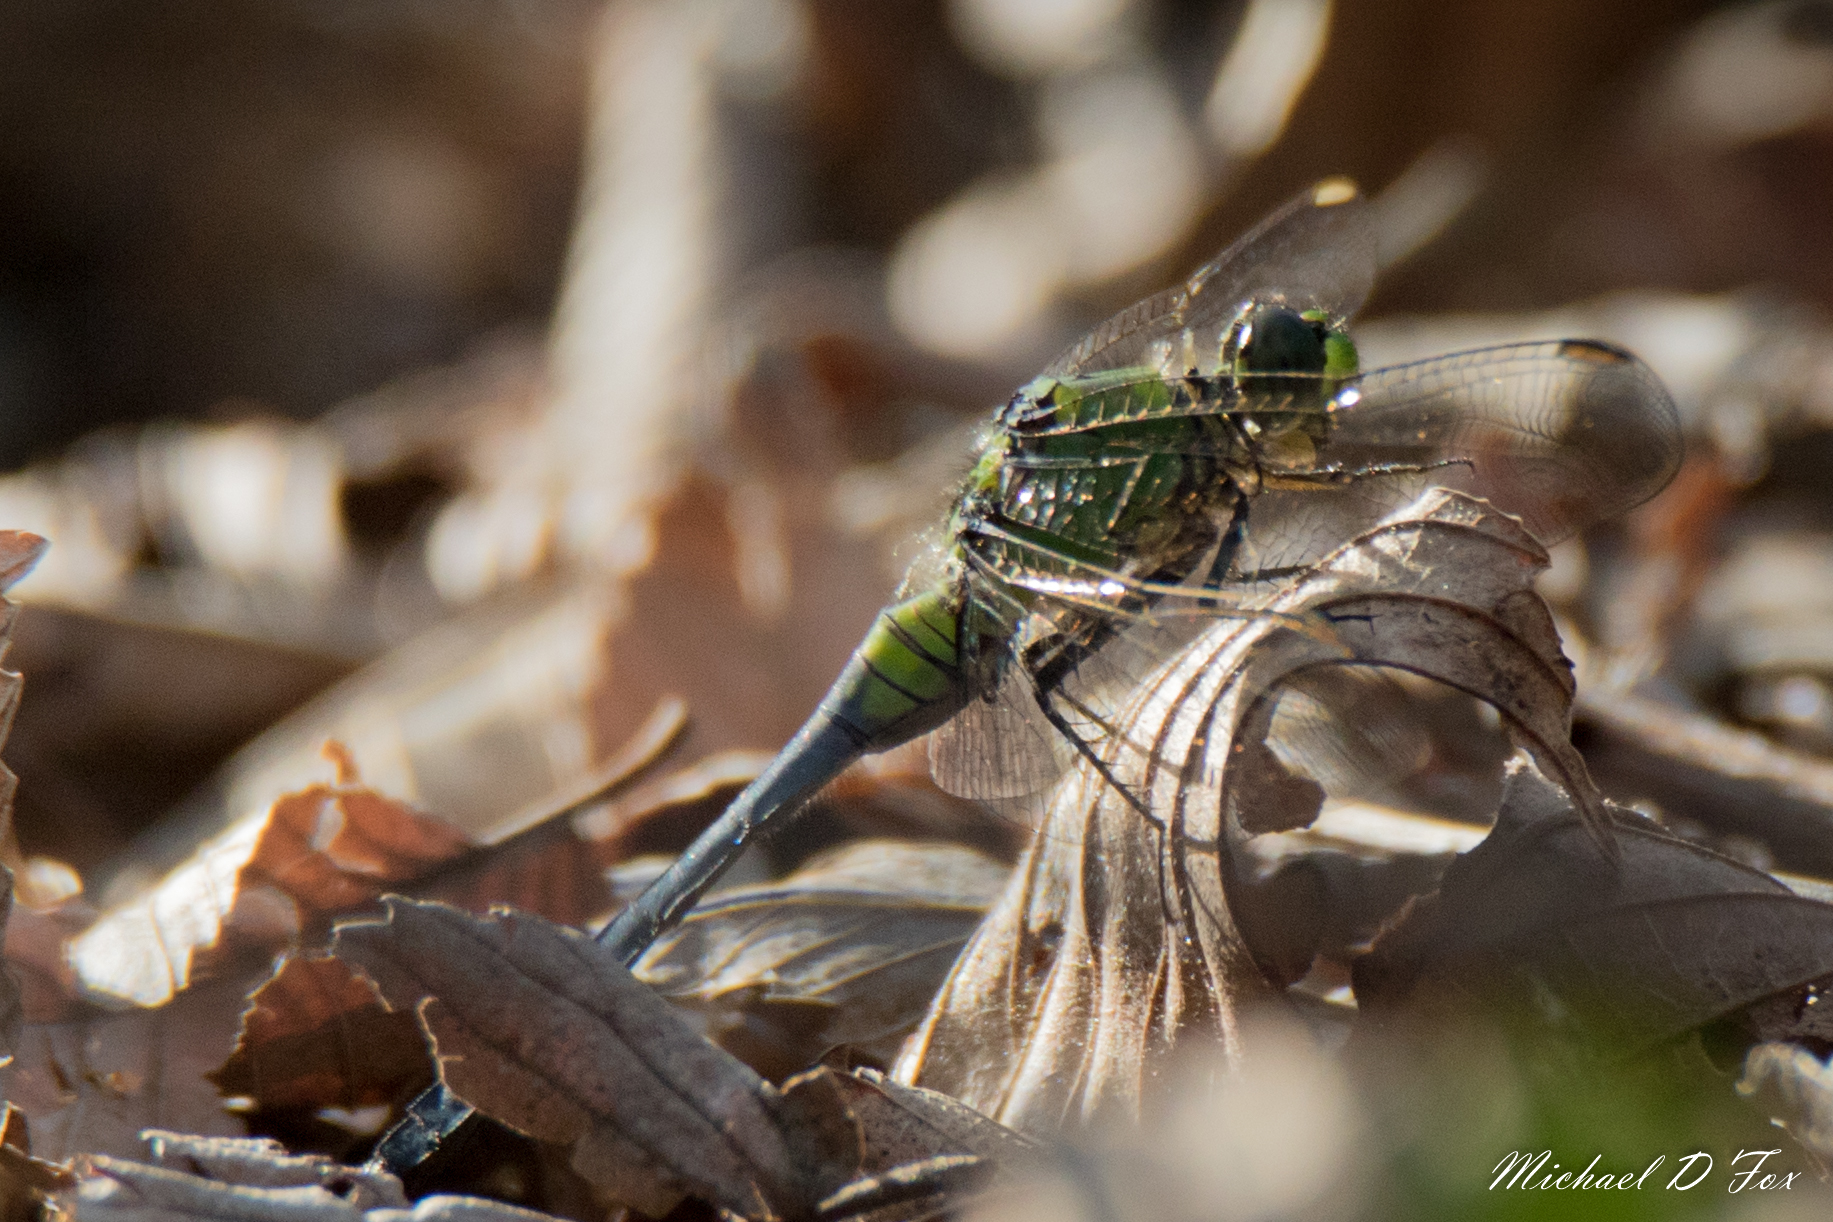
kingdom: Animalia
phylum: Arthropoda
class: Insecta
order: Odonata
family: Libellulidae
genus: Erythemis
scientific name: Erythemis simplicicollis
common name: Eastern pondhawk
